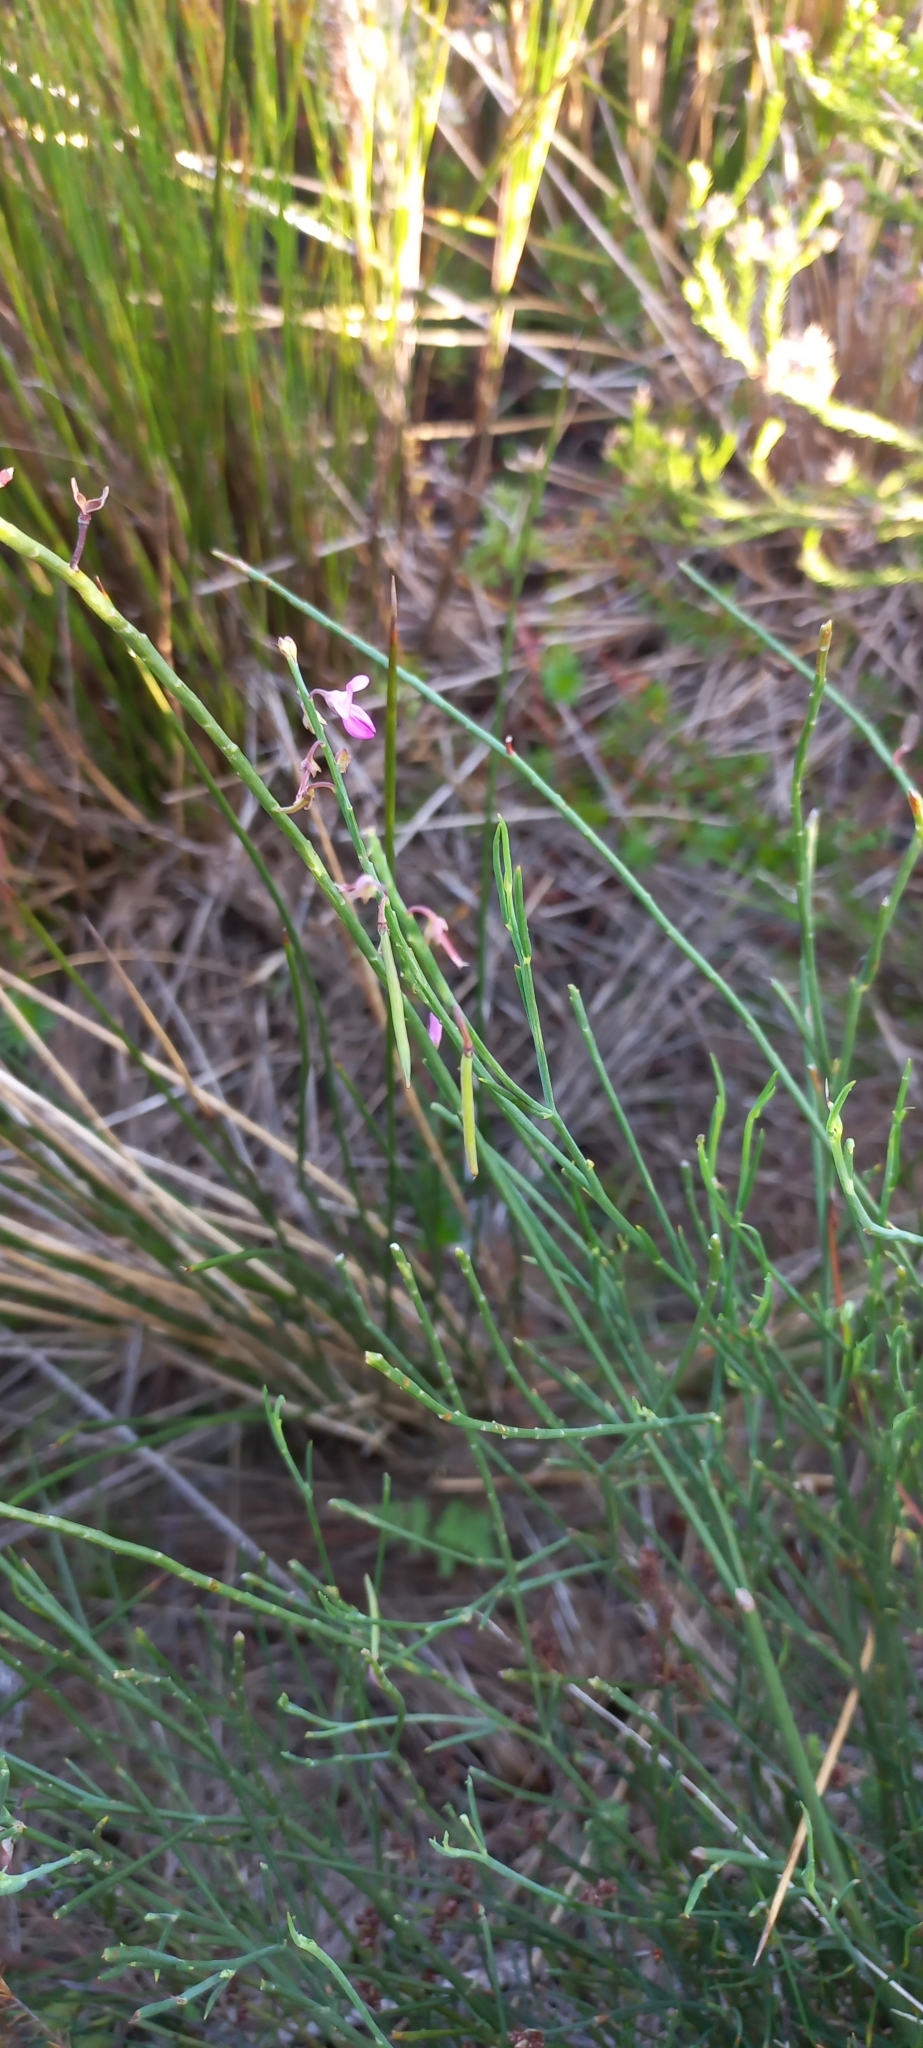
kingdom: Plantae
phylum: Tracheophyta
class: Magnoliopsida
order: Fabales
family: Fabaceae
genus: Indigofera
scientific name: Indigofera ionii
